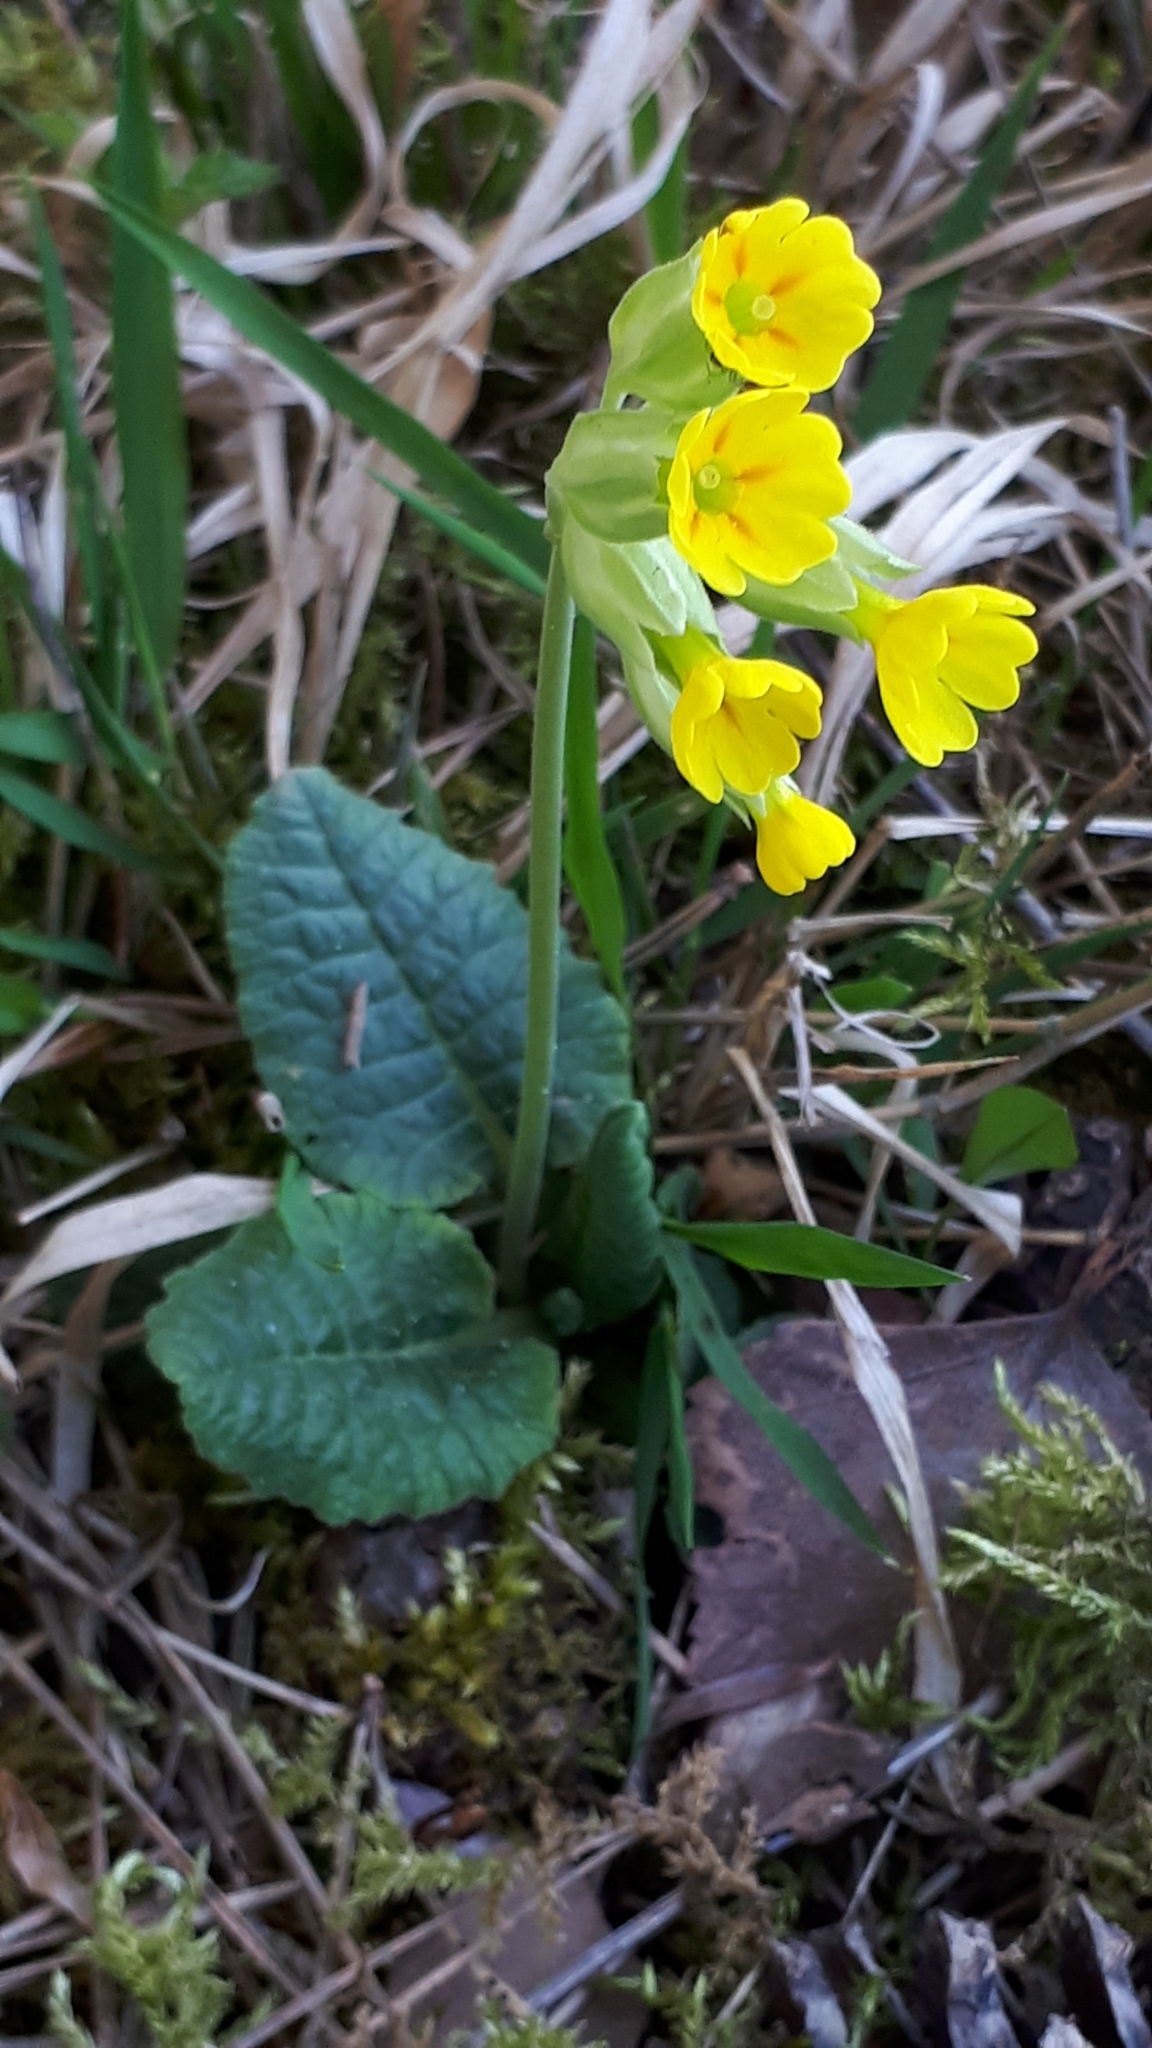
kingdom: Plantae
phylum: Tracheophyta
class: Magnoliopsida
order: Ericales
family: Primulaceae
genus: Primula
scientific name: Primula veris
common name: Cowslip
